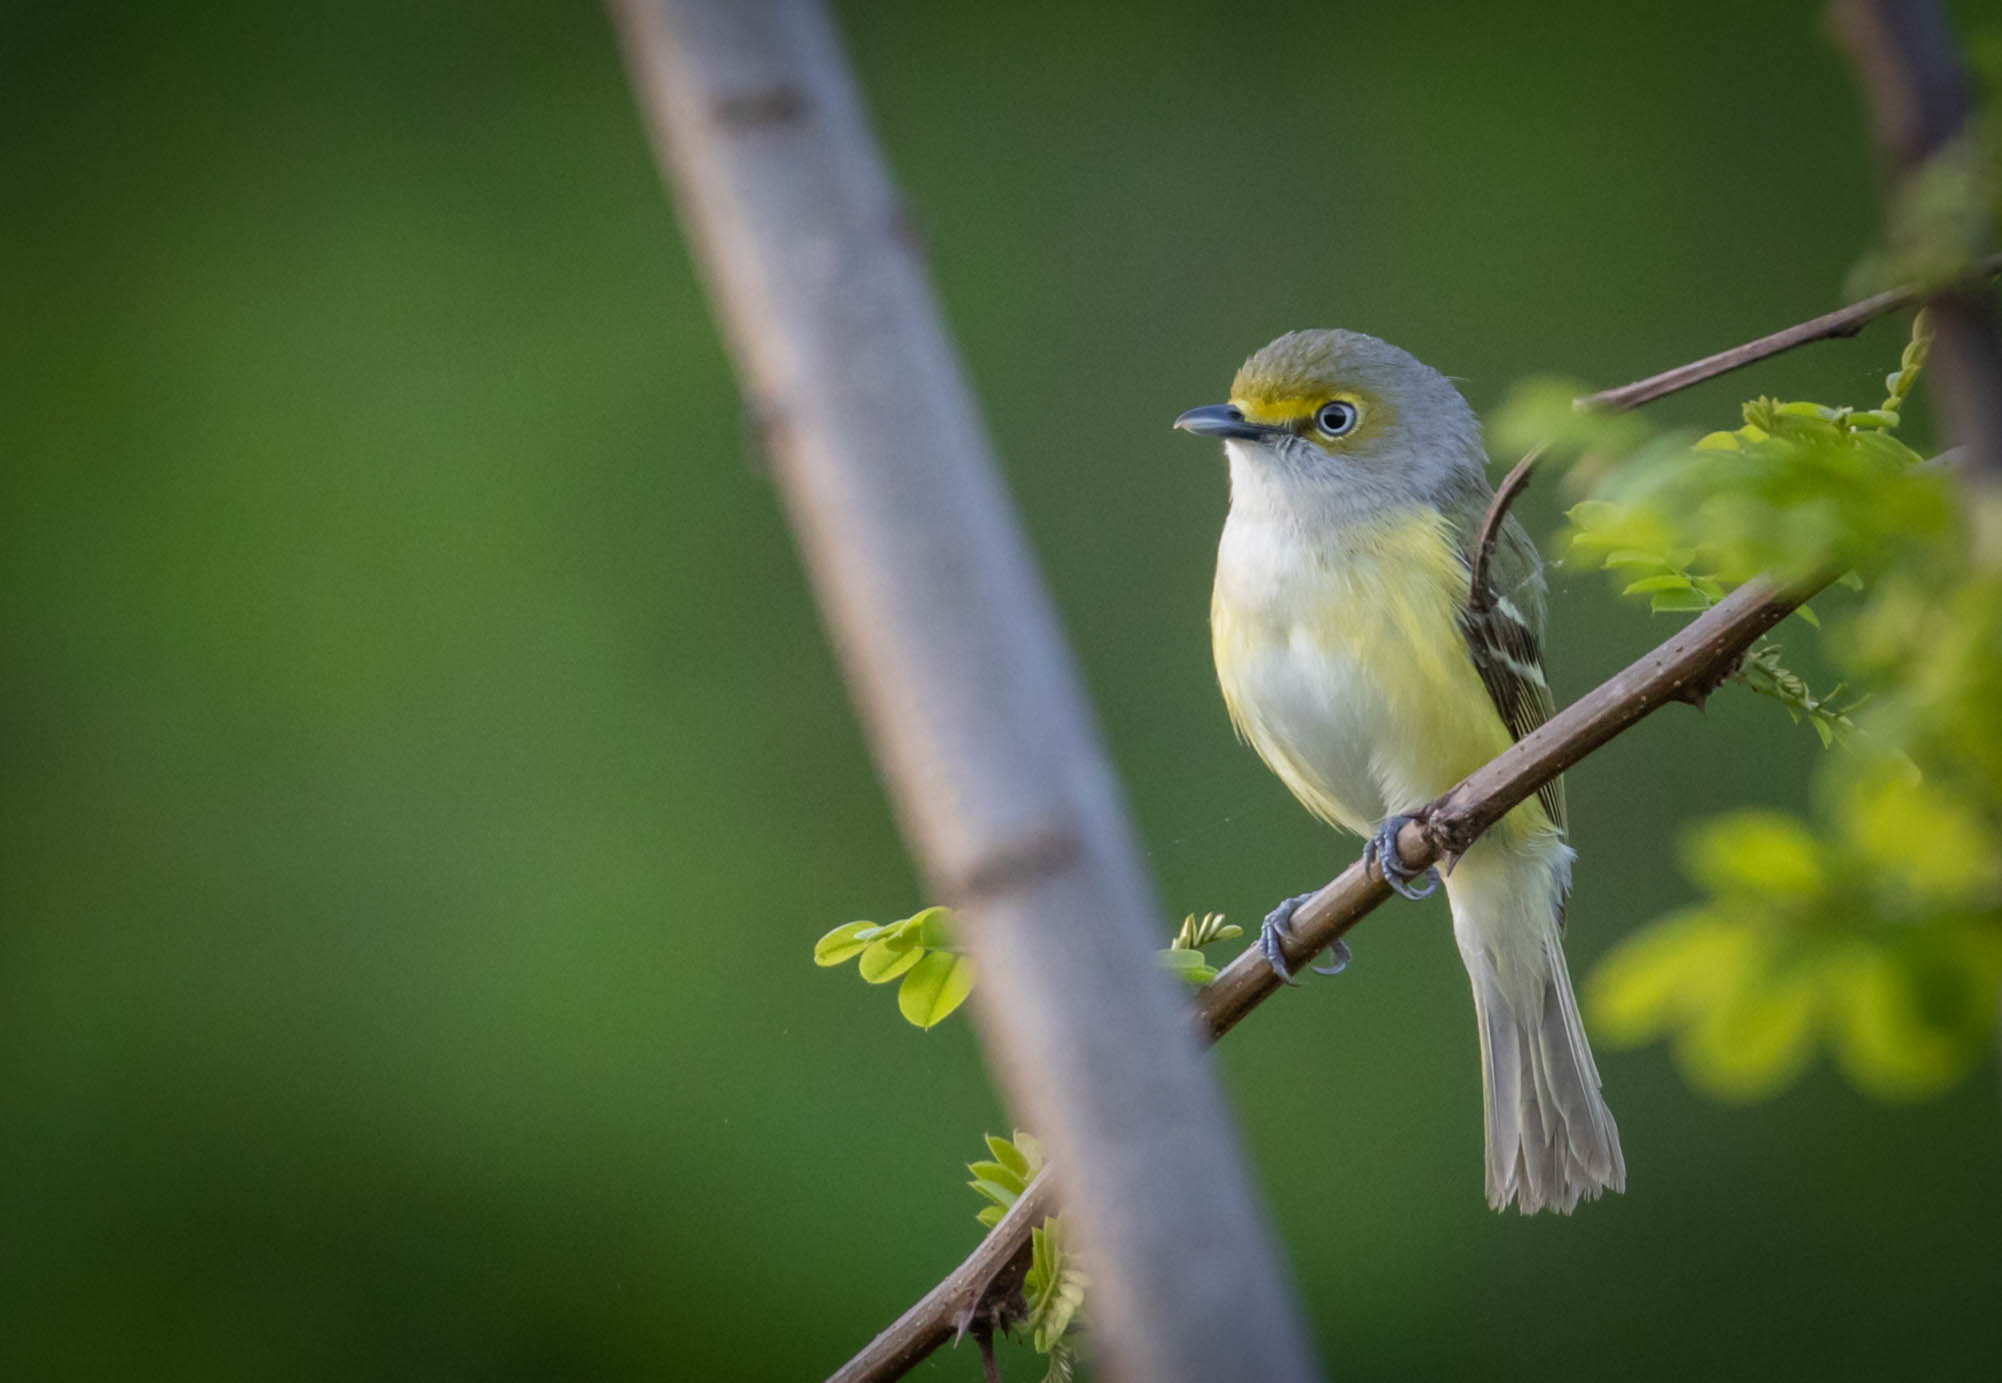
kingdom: Animalia
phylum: Chordata
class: Aves
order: Passeriformes
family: Vireonidae
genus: Vireo
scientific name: Vireo griseus
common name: White-eyed vireo
